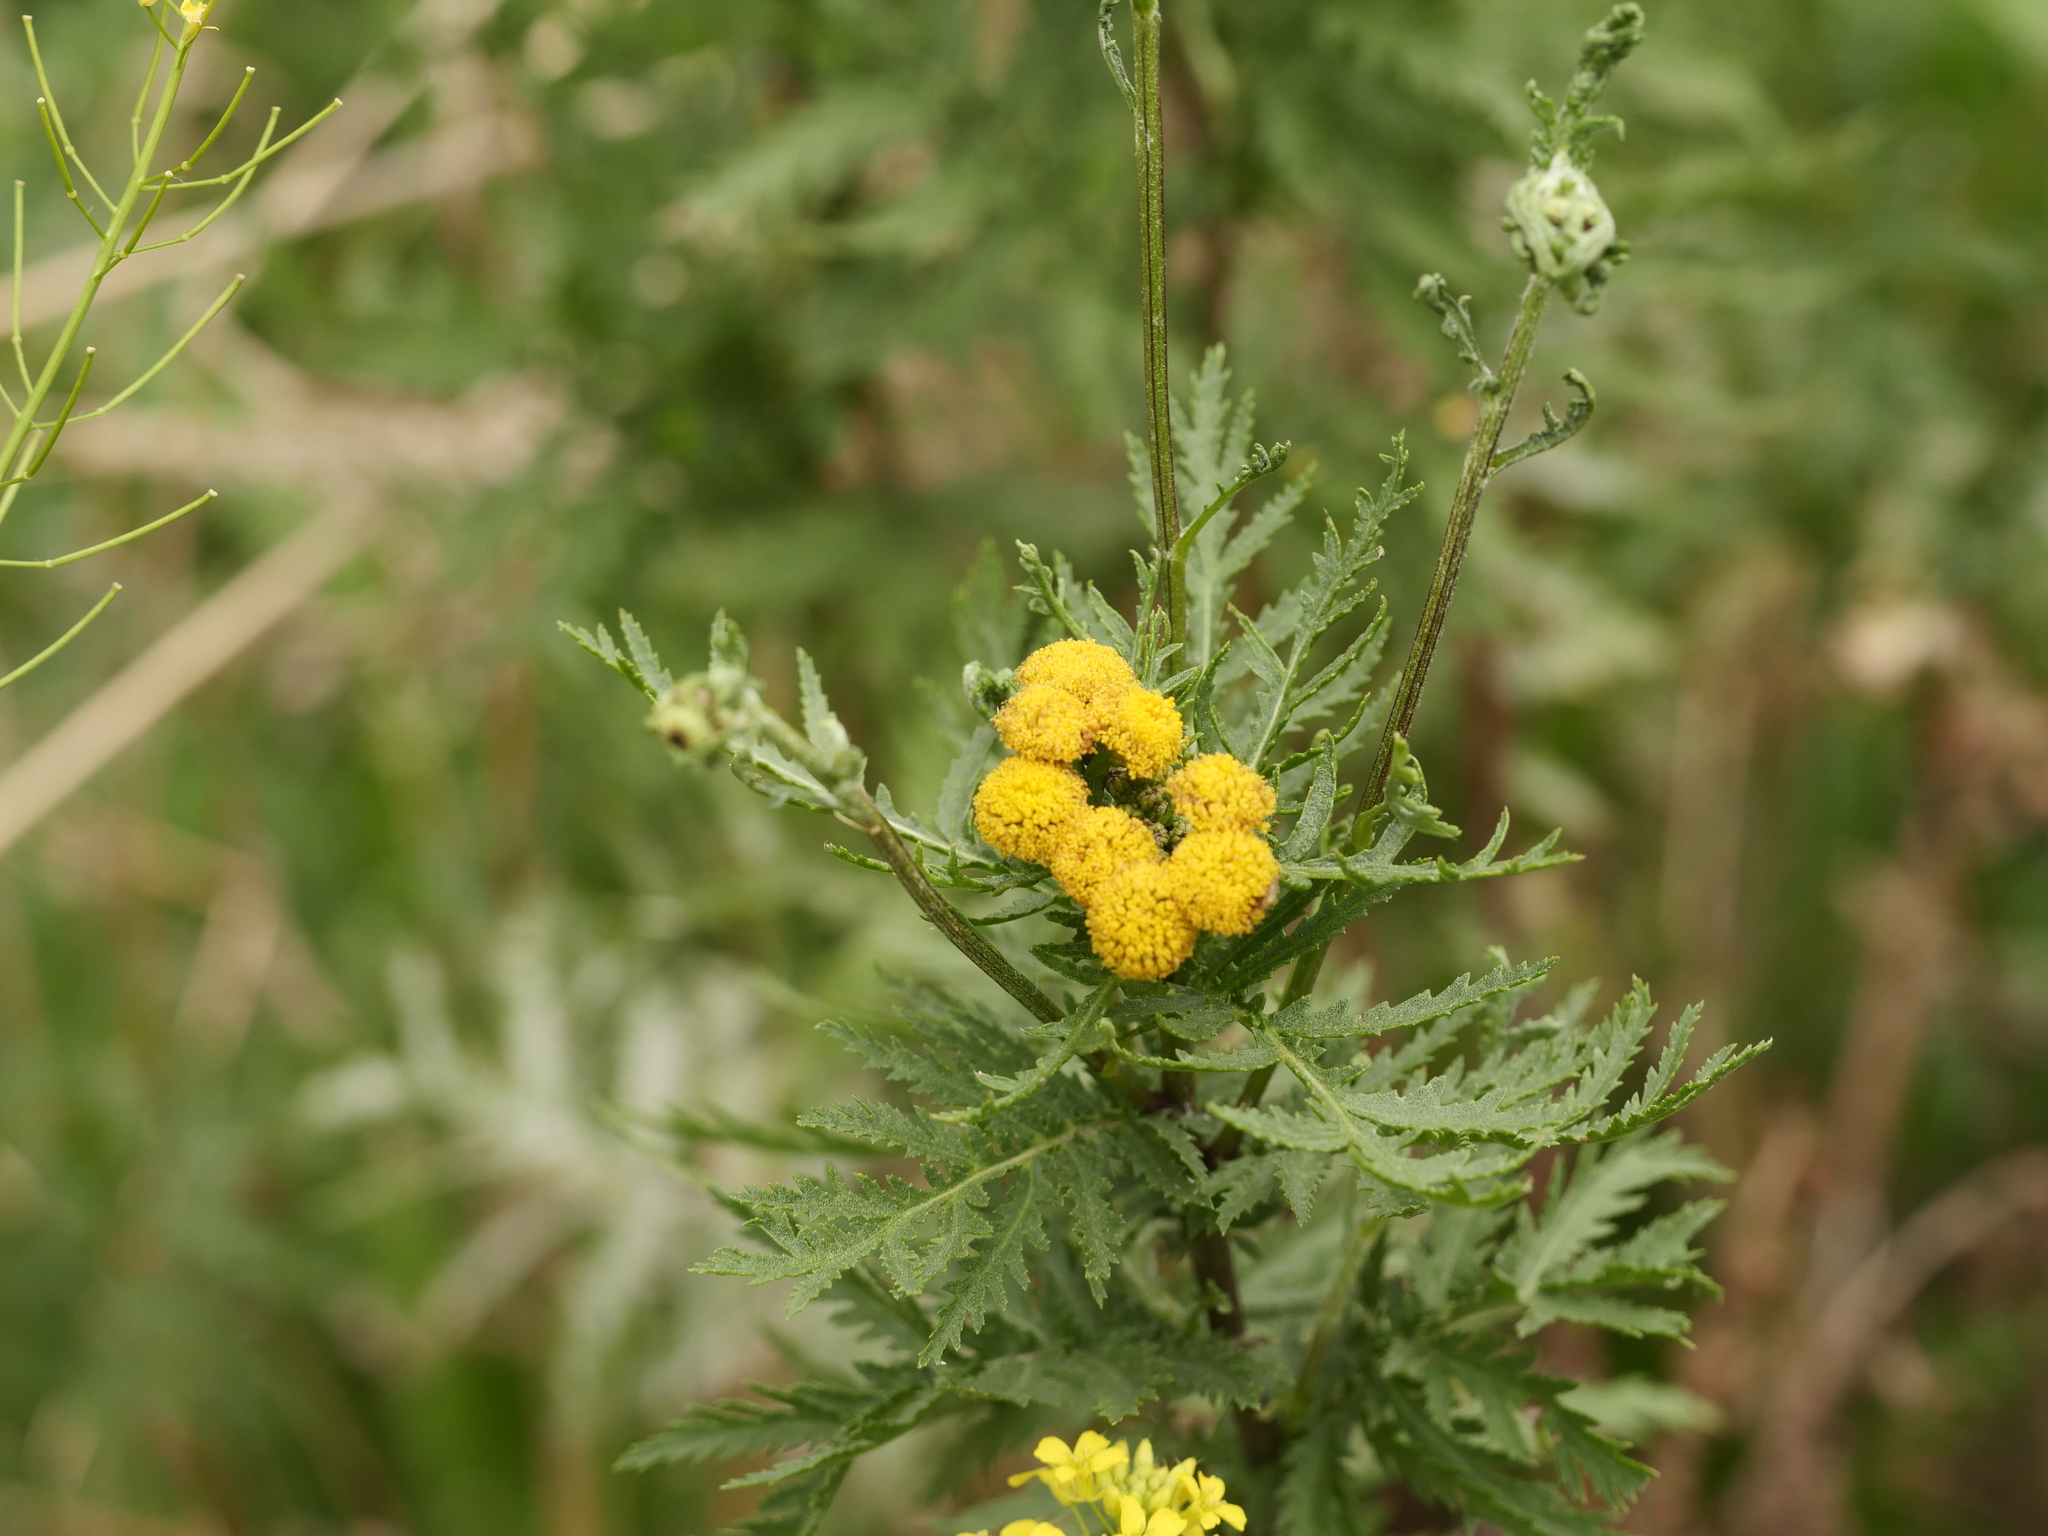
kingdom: Plantae
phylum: Tracheophyta
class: Magnoliopsida
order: Asterales
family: Asteraceae
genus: Tanacetum
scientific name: Tanacetum vulgare
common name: Common tansy
